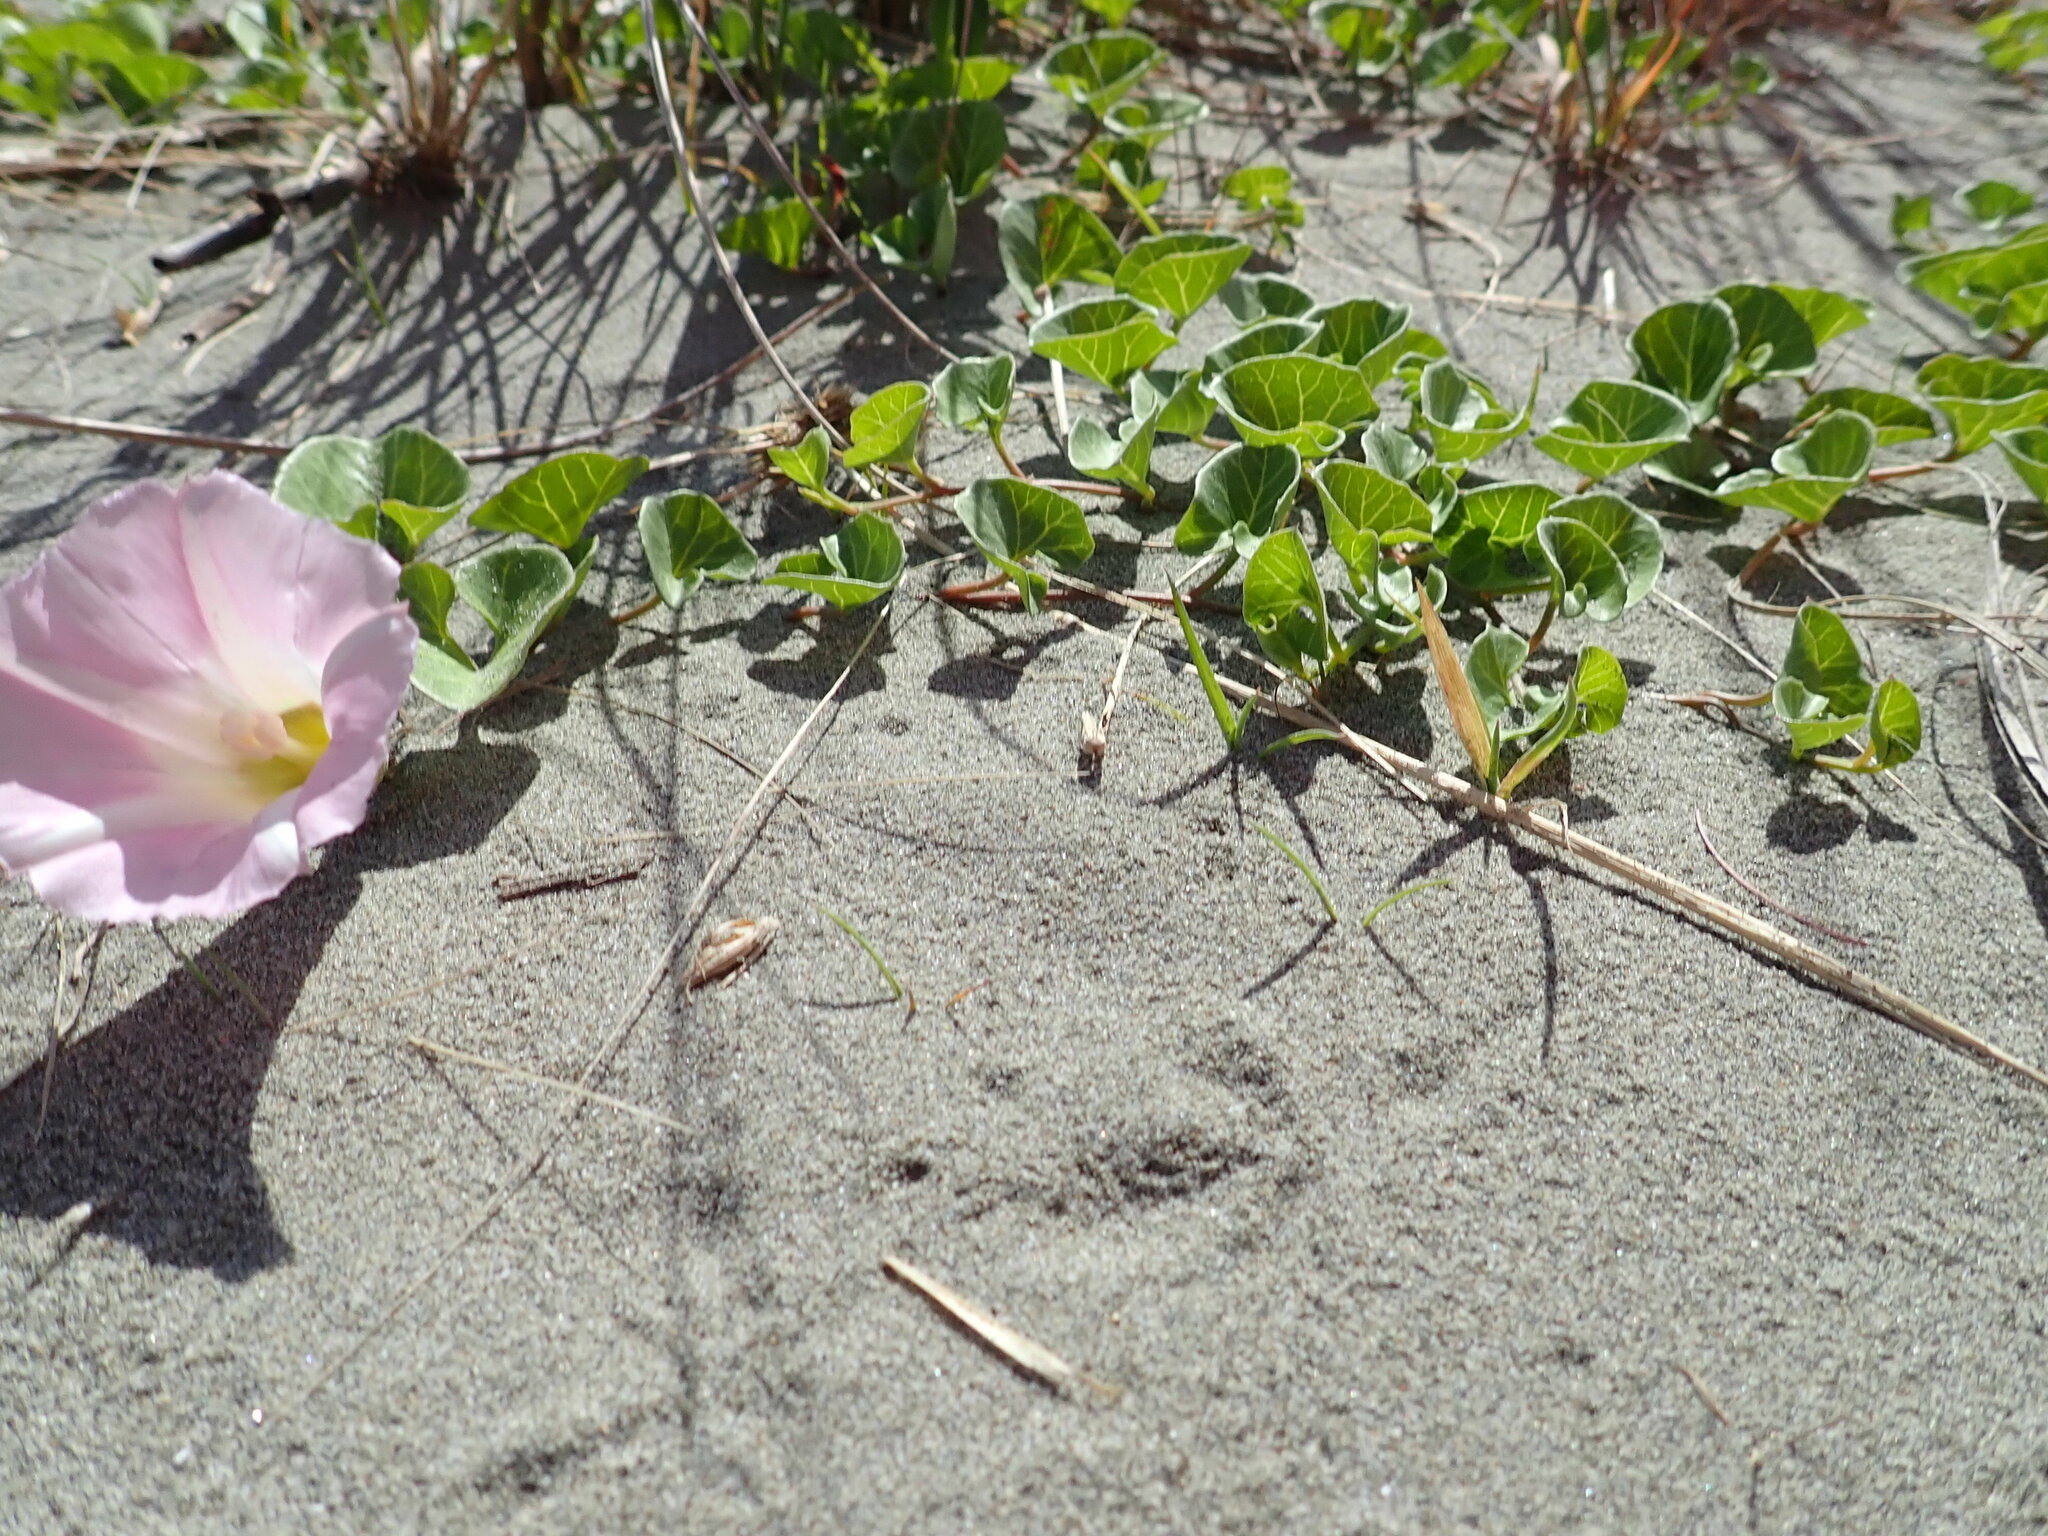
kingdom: Plantae
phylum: Tracheophyta
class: Magnoliopsida
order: Solanales
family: Convolvulaceae
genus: Calystegia
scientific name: Calystegia soldanella
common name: Sea bindweed
